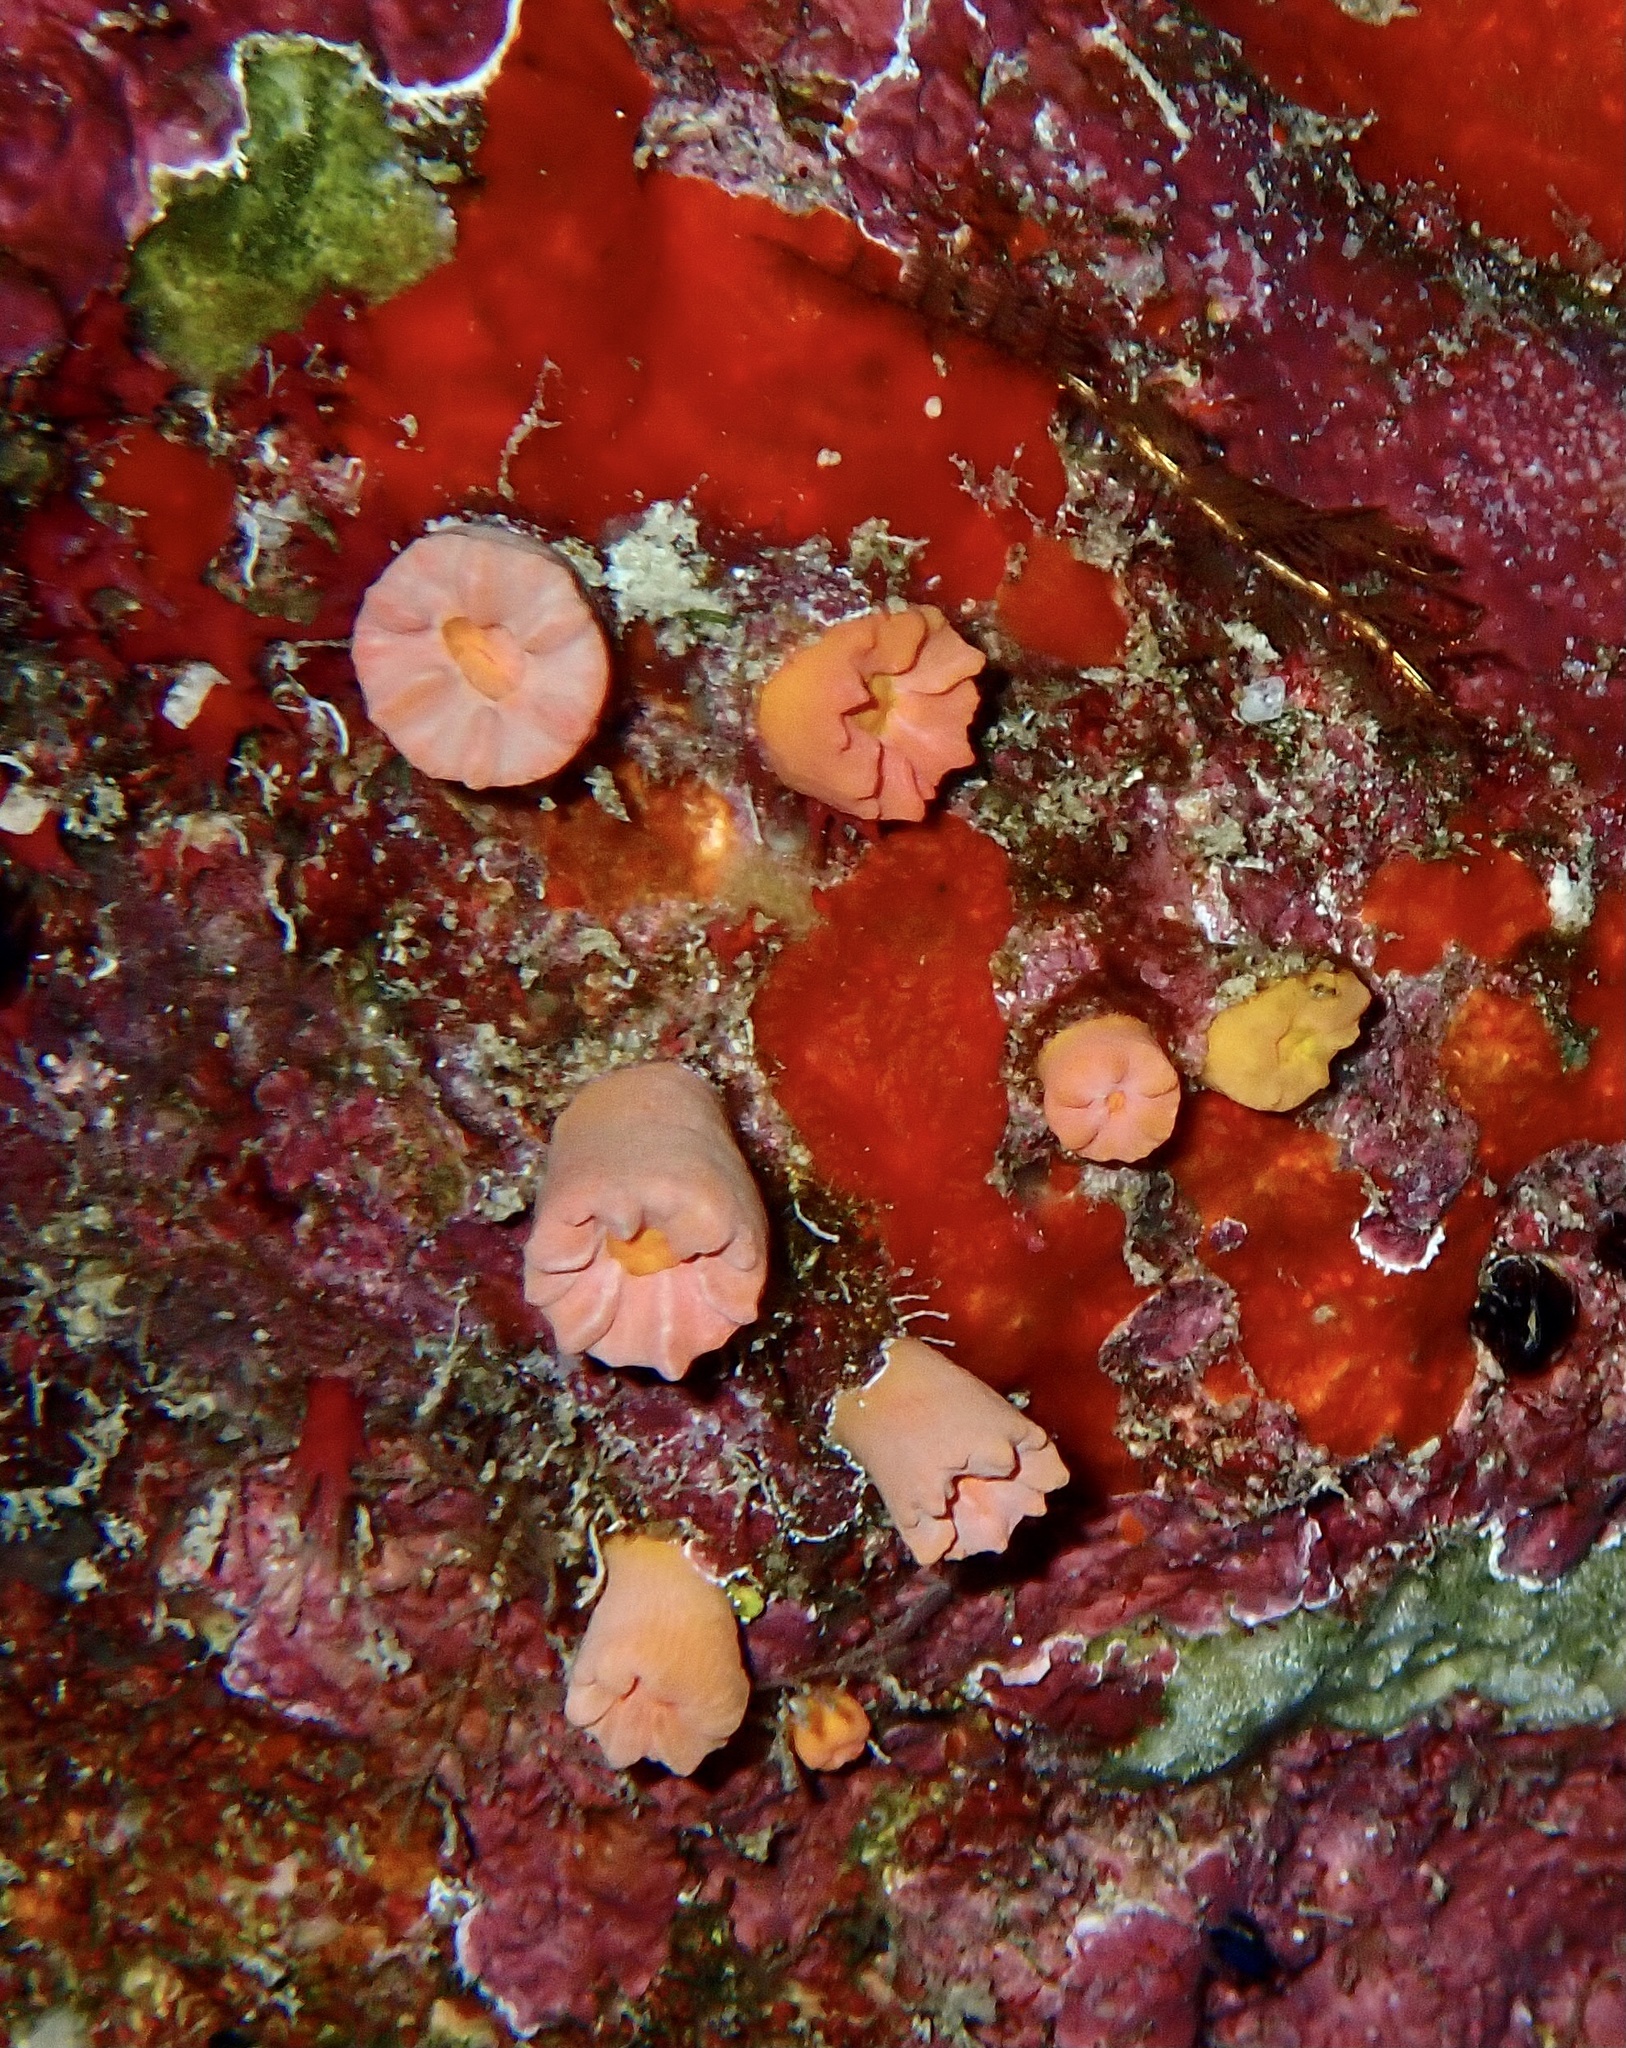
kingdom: Animalia
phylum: Cnidaria
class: Anthozoa
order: Scleractinia
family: Dendrophylliidae
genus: Cladopsammia
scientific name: Cladopsammia gracilis
